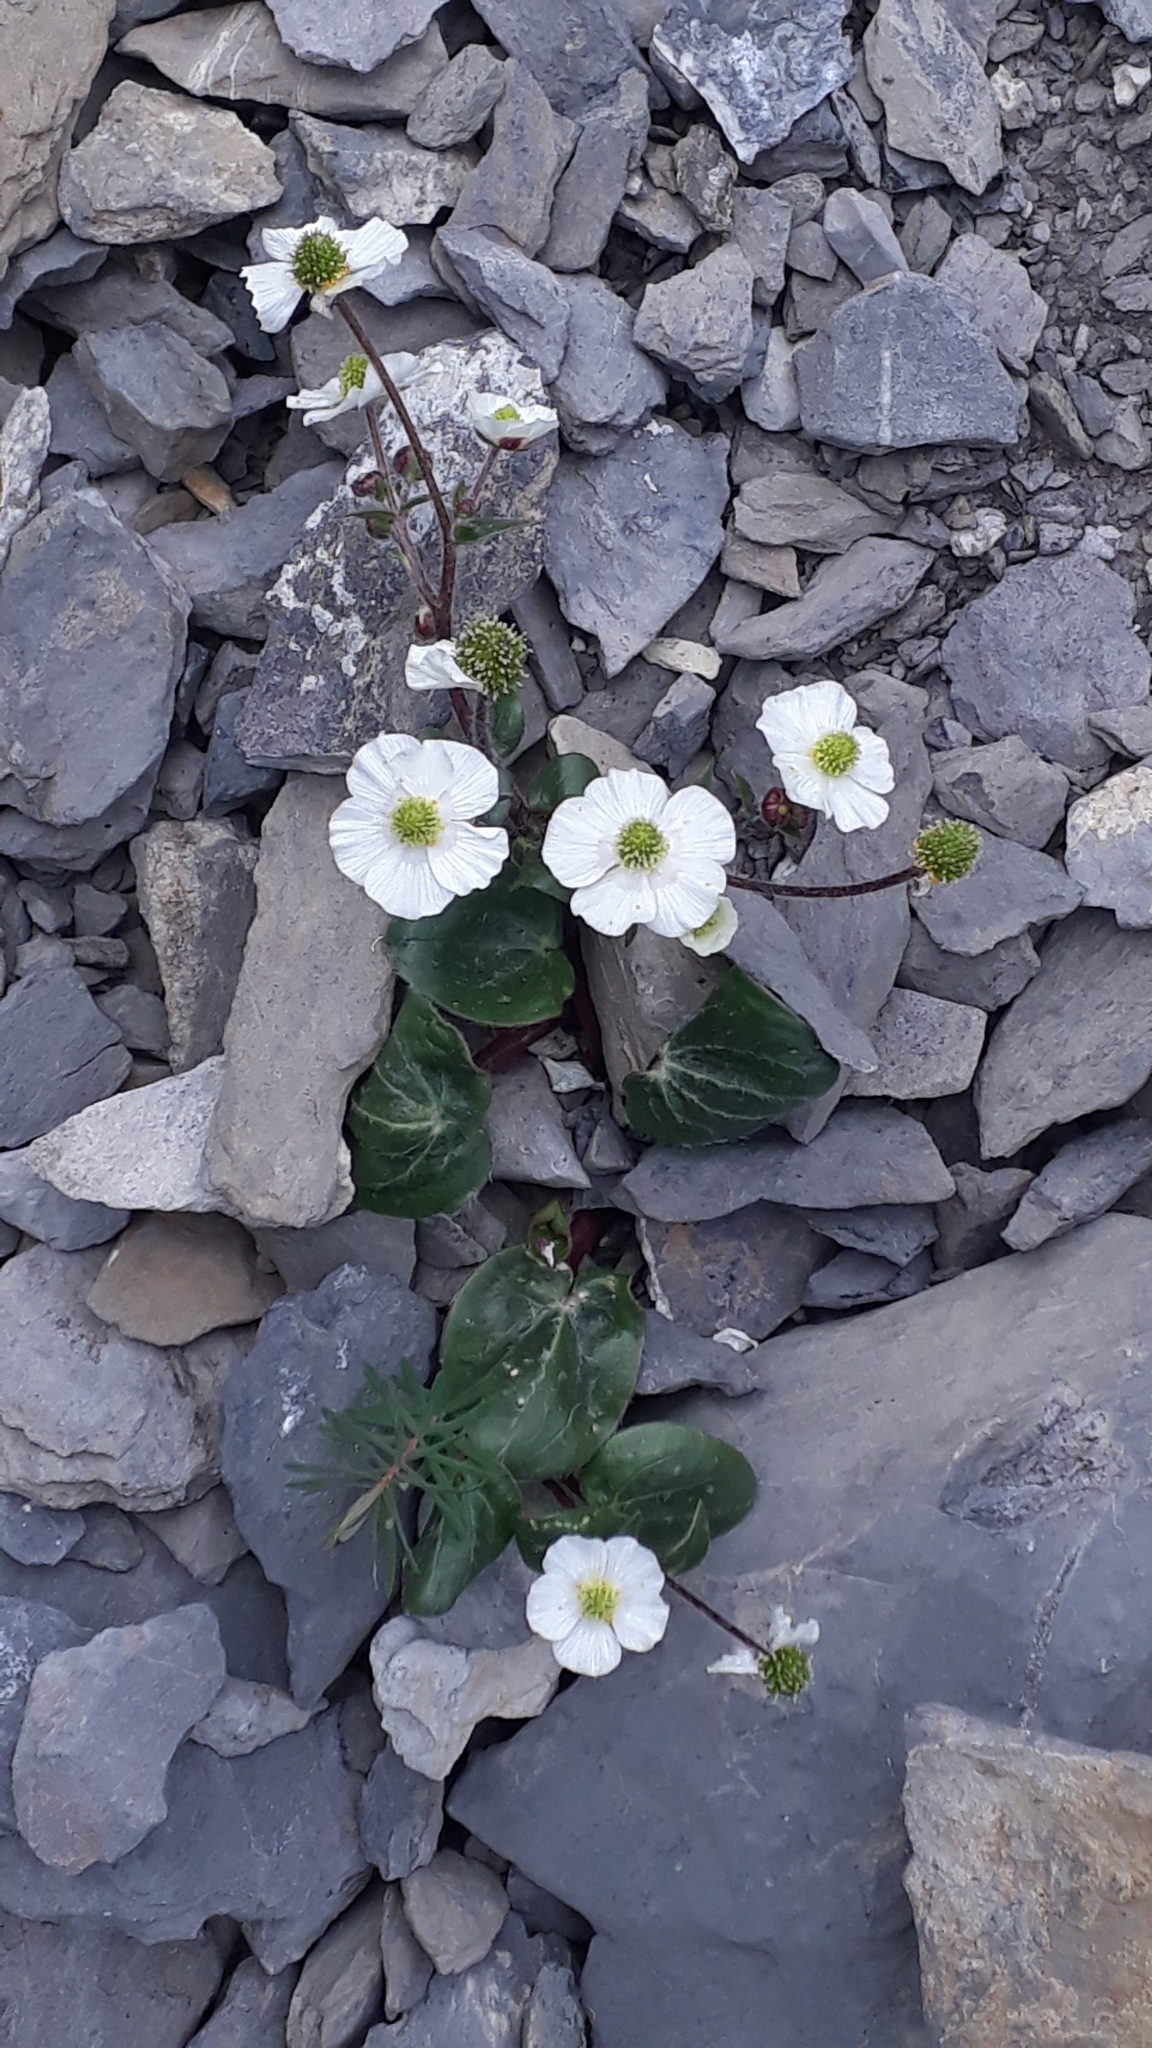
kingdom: Plantae
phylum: Tracheophyta
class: Magnoliopsida
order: Ranunculales
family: Ranunculaceae
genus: Ranunculus
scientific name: Ranunculus parnassiifolius
